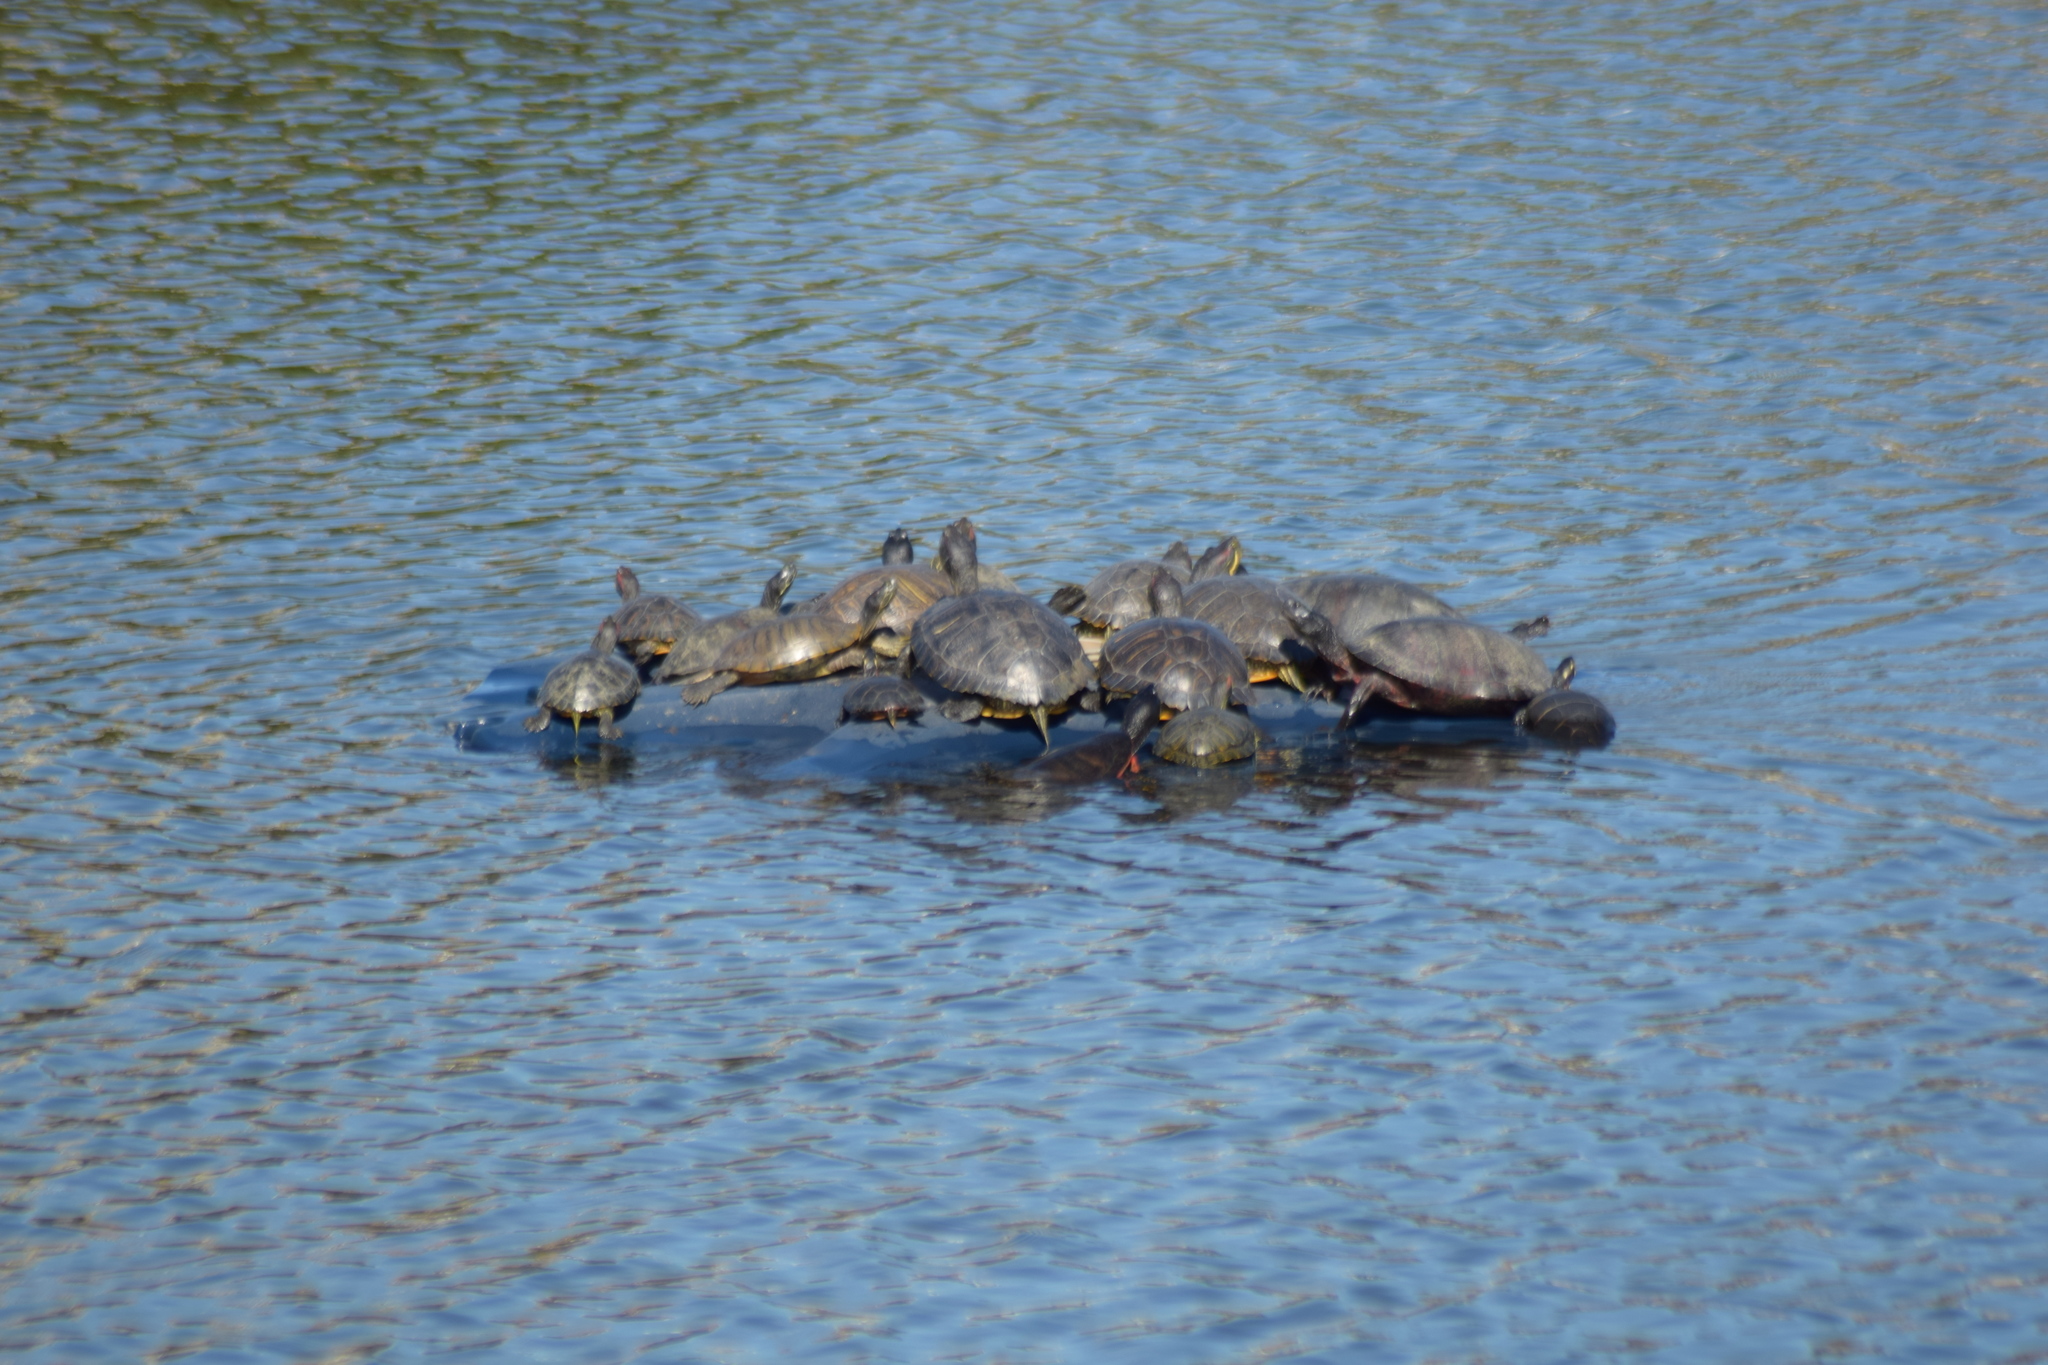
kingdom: Animalia
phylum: Chordata
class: Testudines
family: Emydidae
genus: Chrysemys
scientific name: Chrysemys picta
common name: Painted turtle
